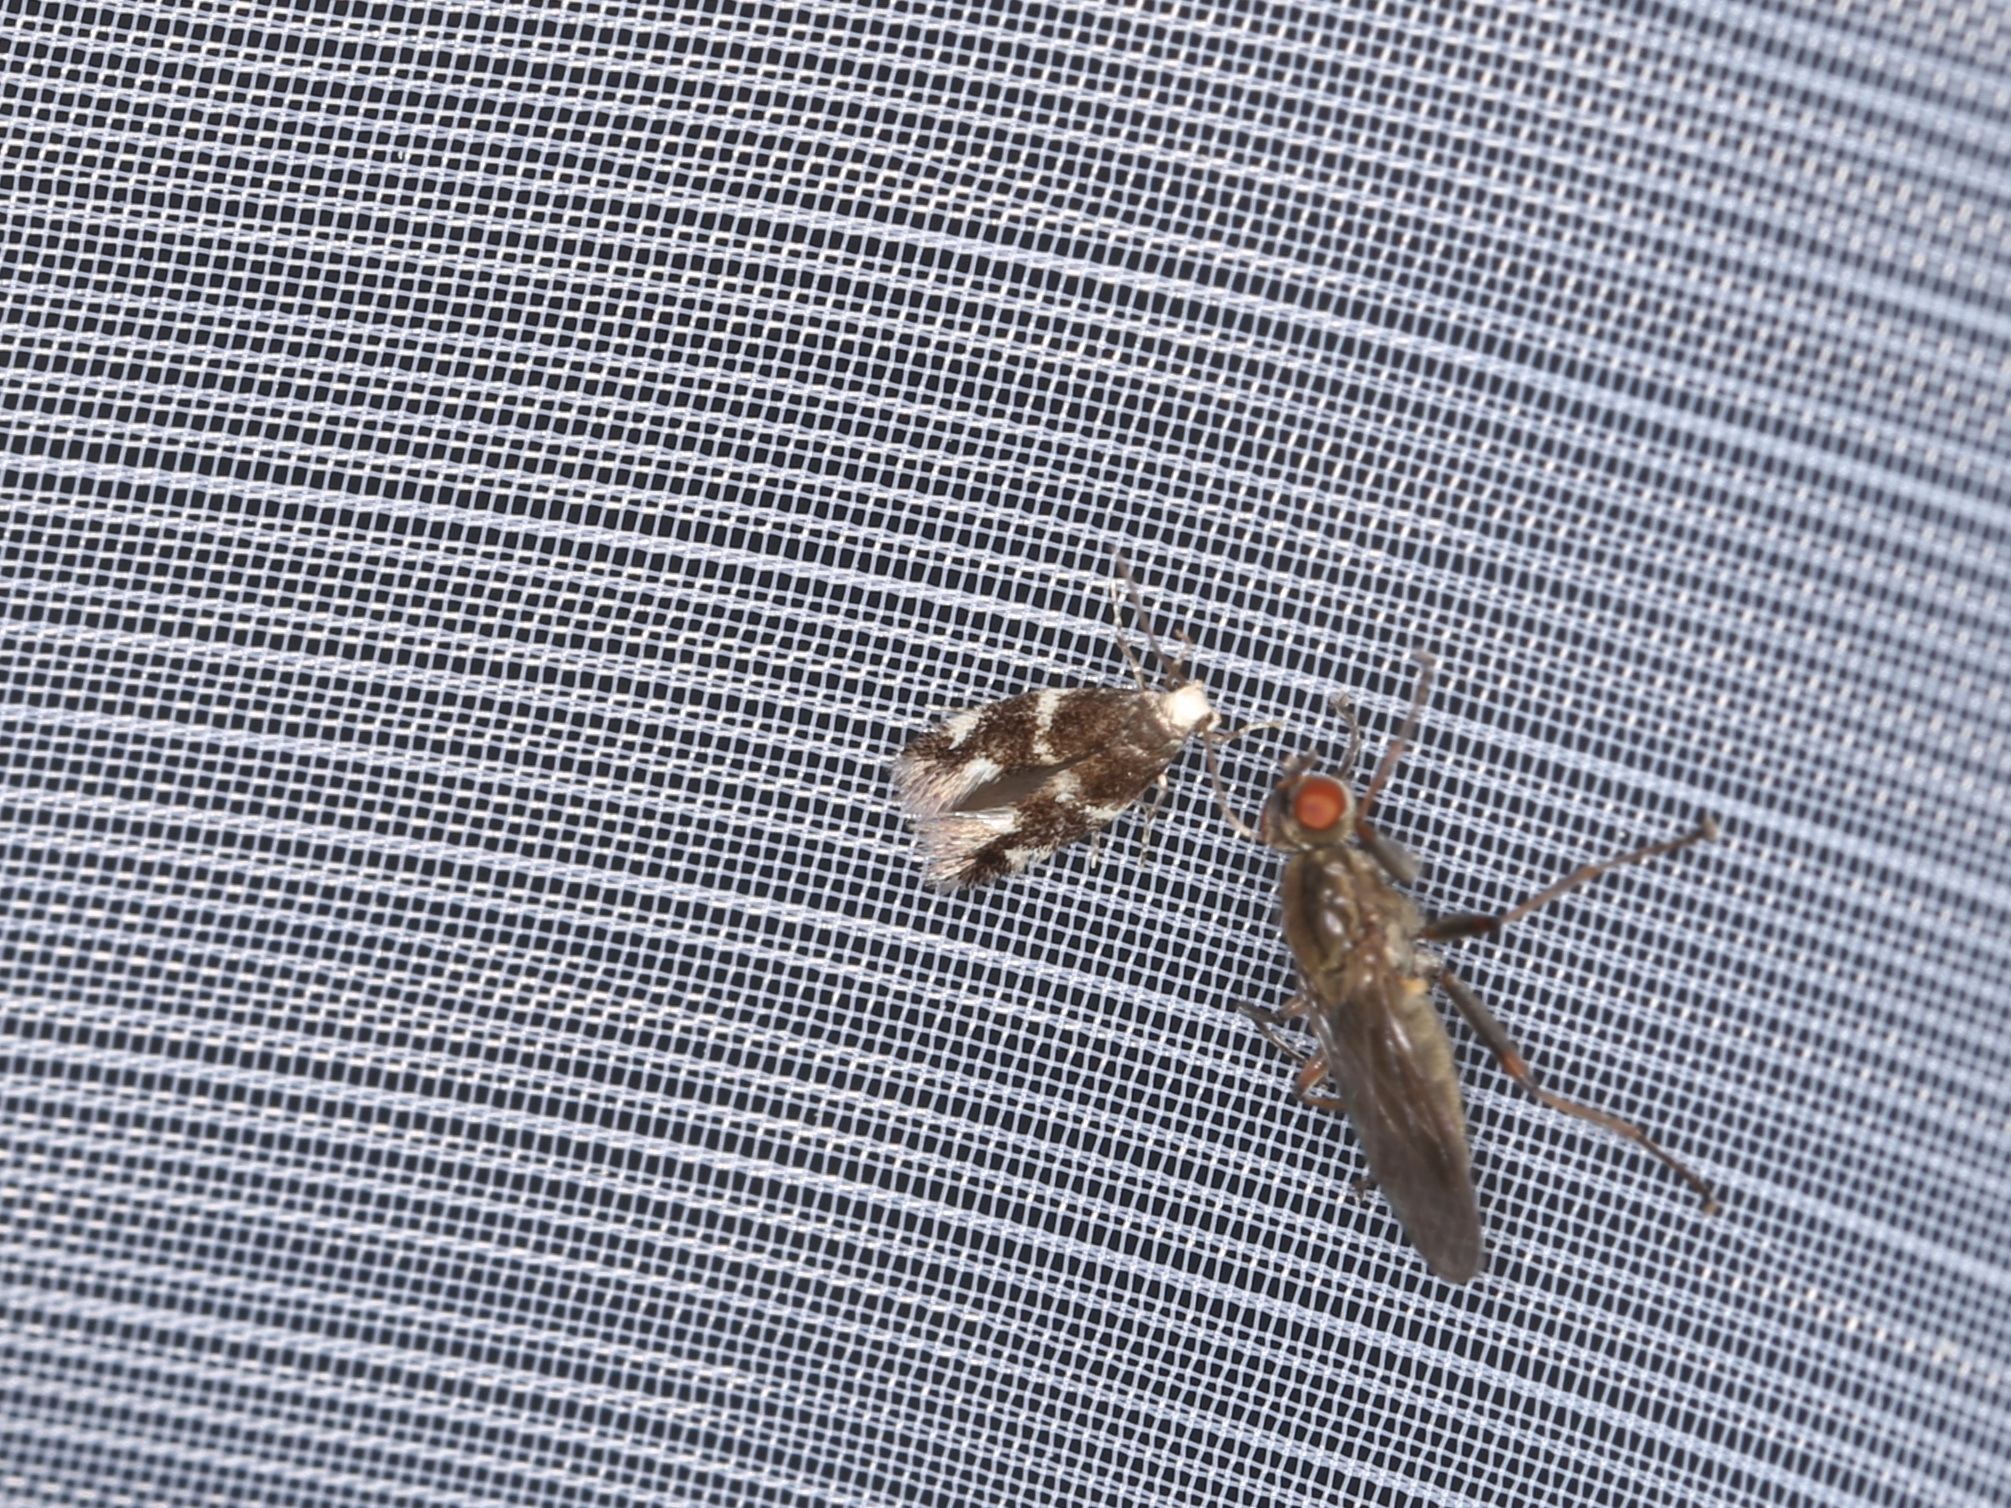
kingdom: Animalia
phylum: Arthropoda
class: Insecta
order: Lepidoptera
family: Elachistidae
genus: Elachista
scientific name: Elachista albifrontella
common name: White-headed dwarf
